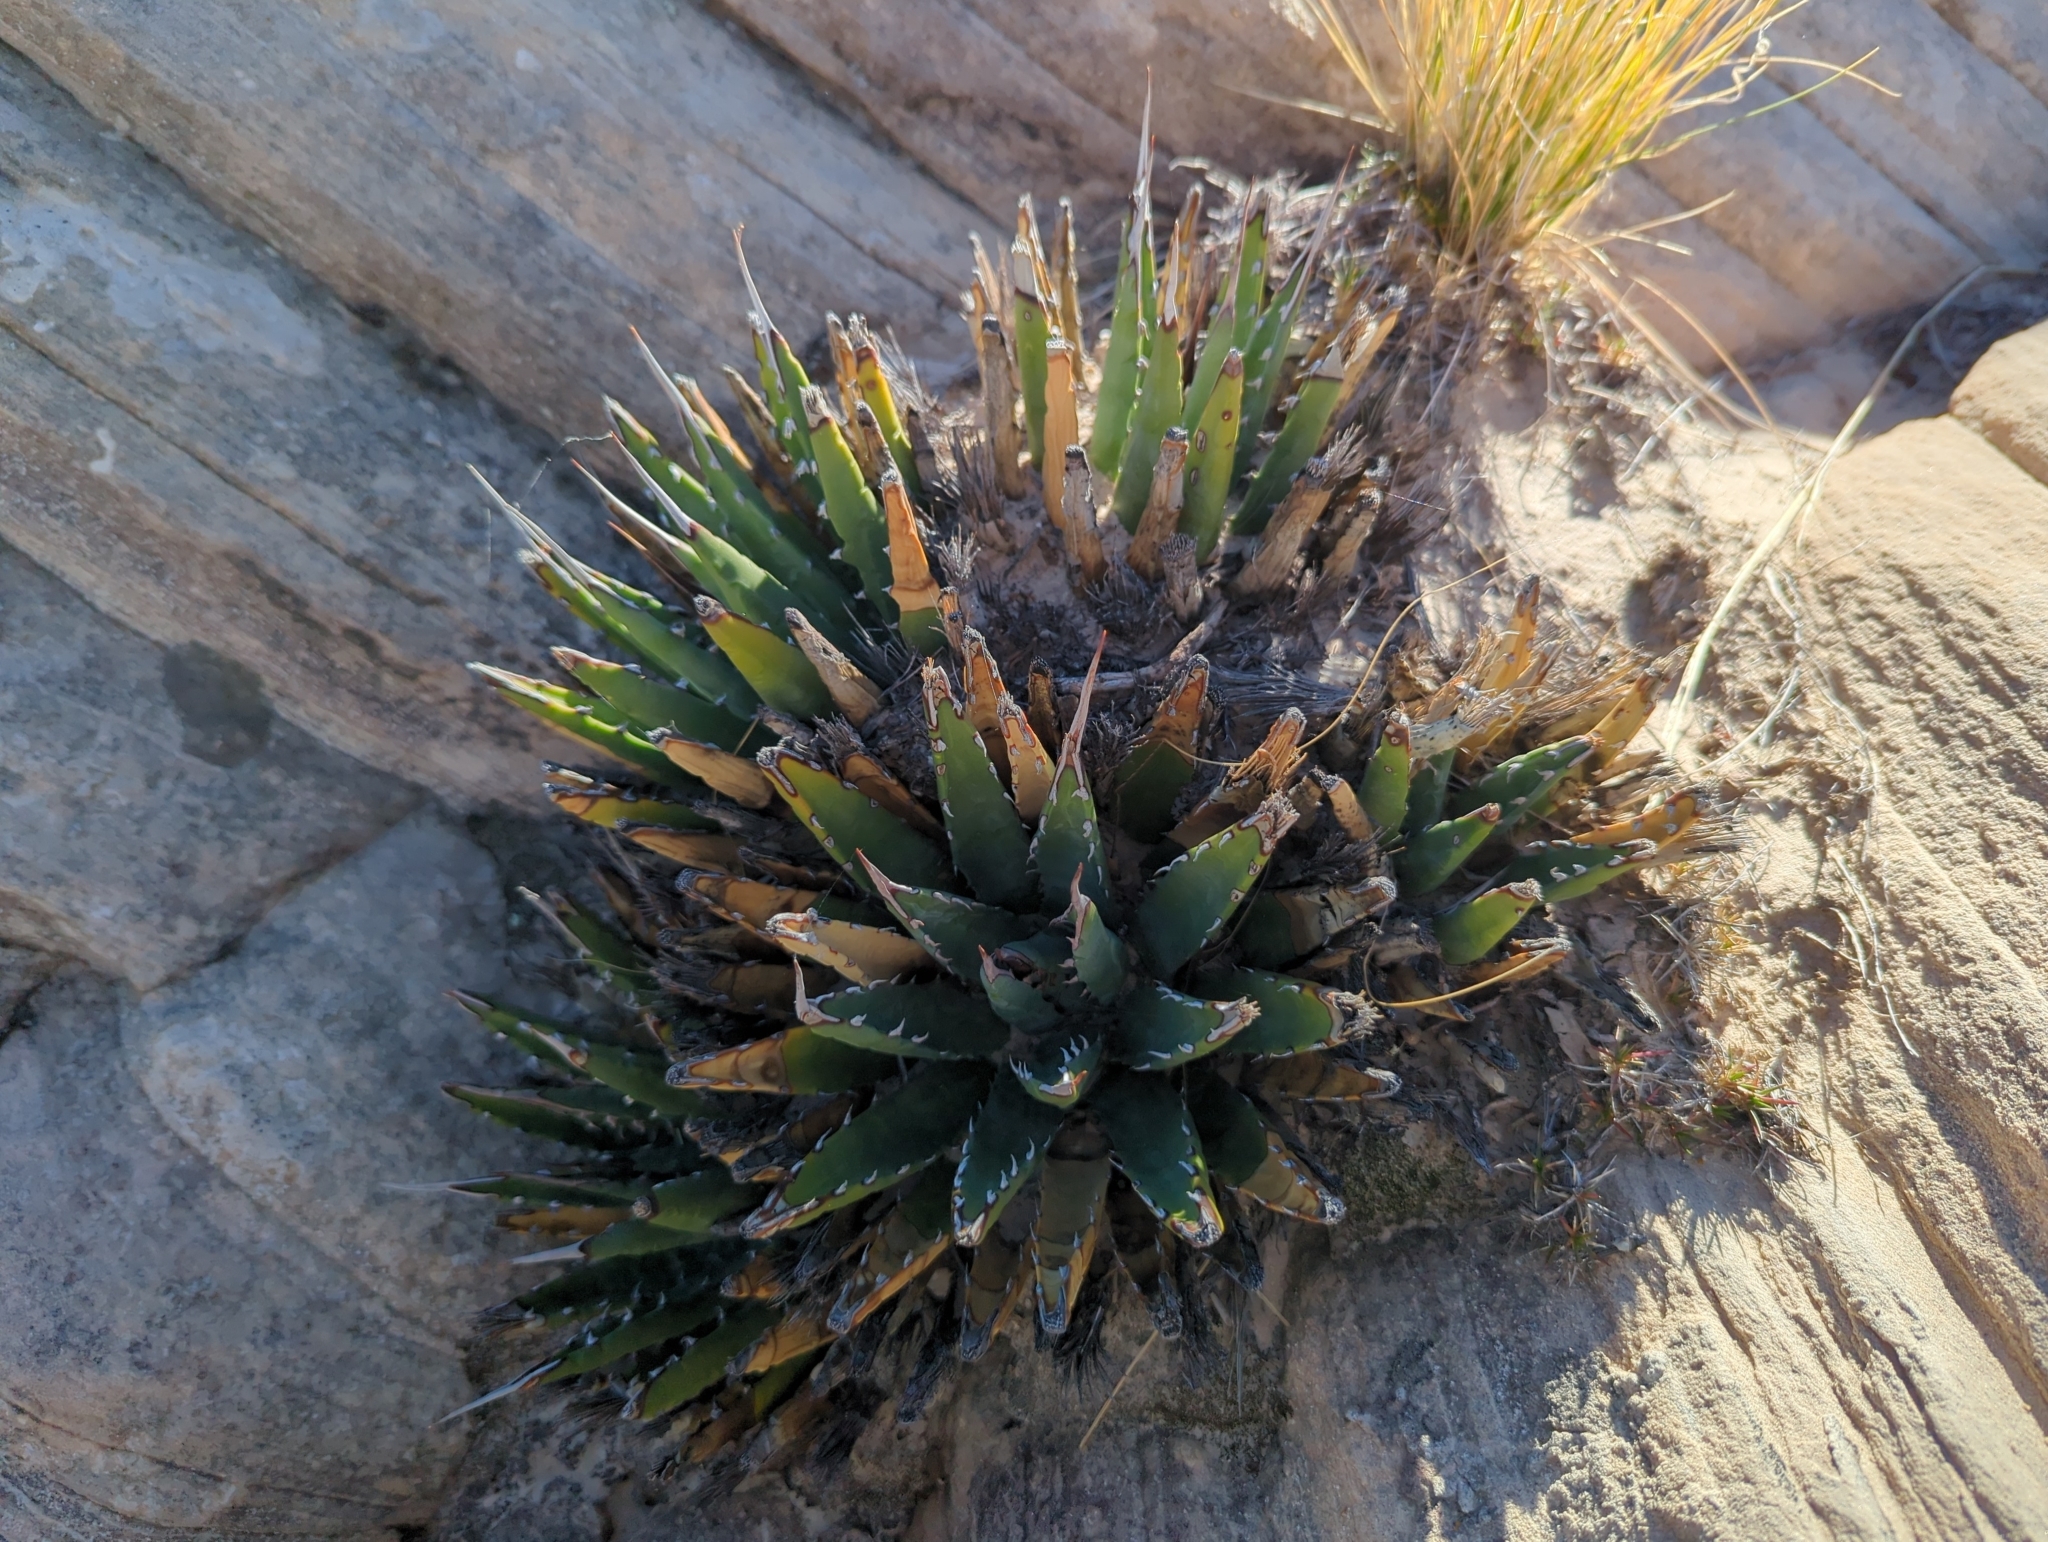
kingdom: Plantae
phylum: Tracheophyta
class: Liliopsida
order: Asparagales
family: Asparagaceae
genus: Agave
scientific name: Agave utahensis
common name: Utah agave
